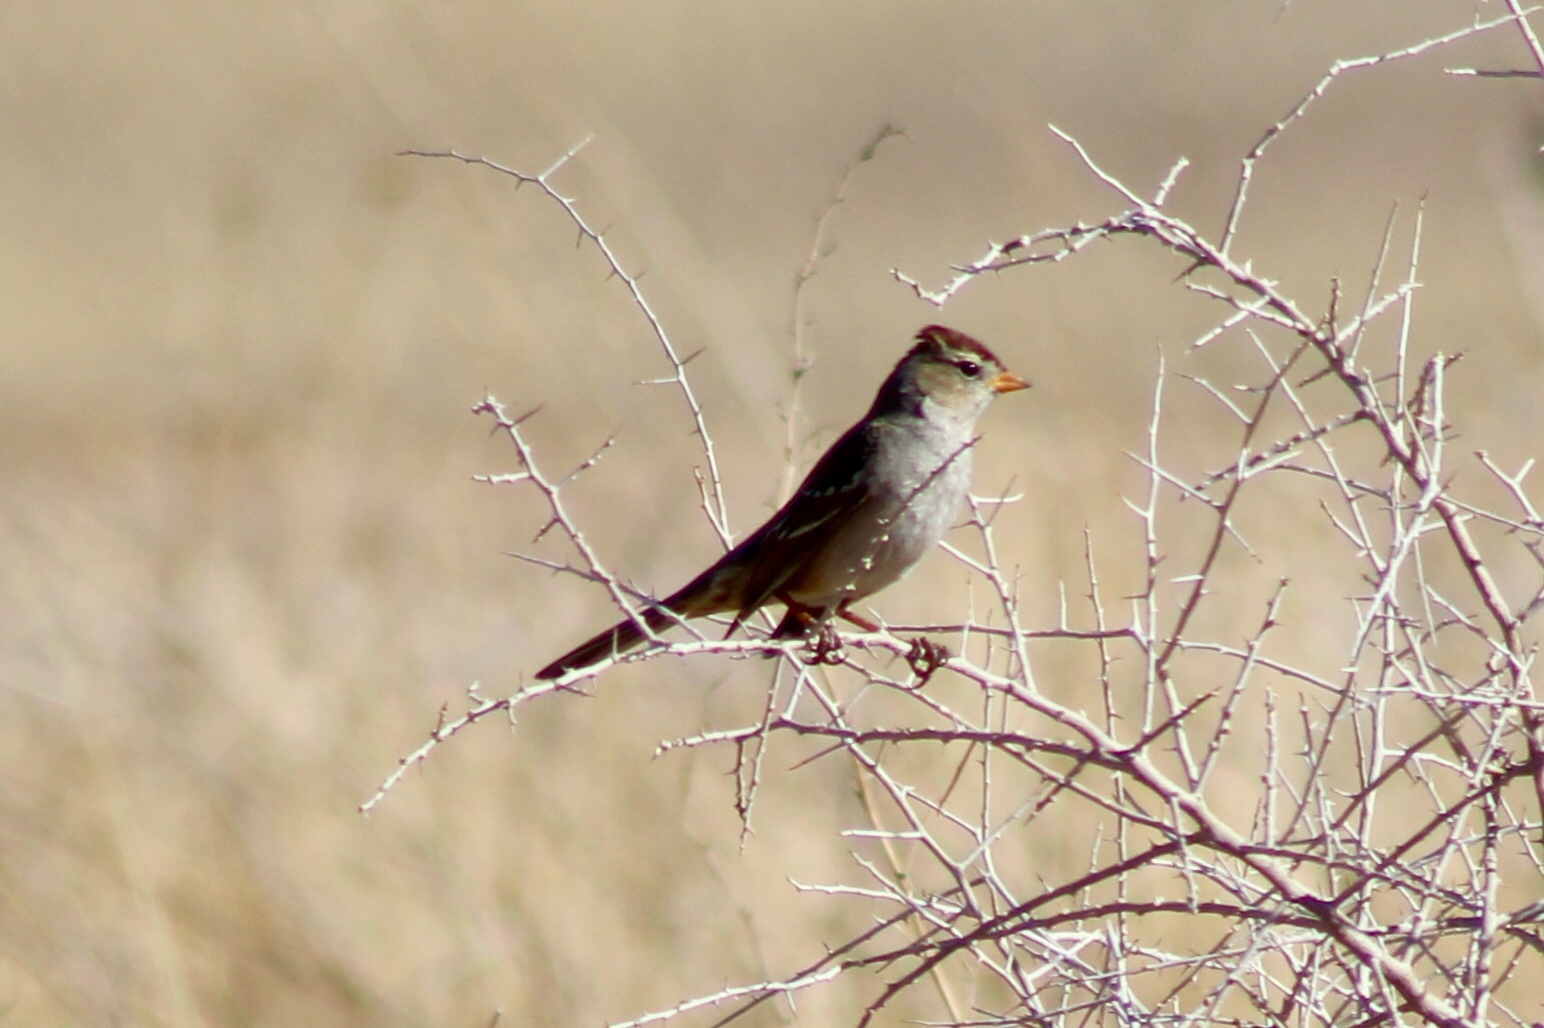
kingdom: Animalia
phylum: Chordata
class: Aves
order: Passeriformes
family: Passerellidae
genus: Zonotrichia
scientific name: Zonotrichia leucophrys
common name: White-crowned sparrow
